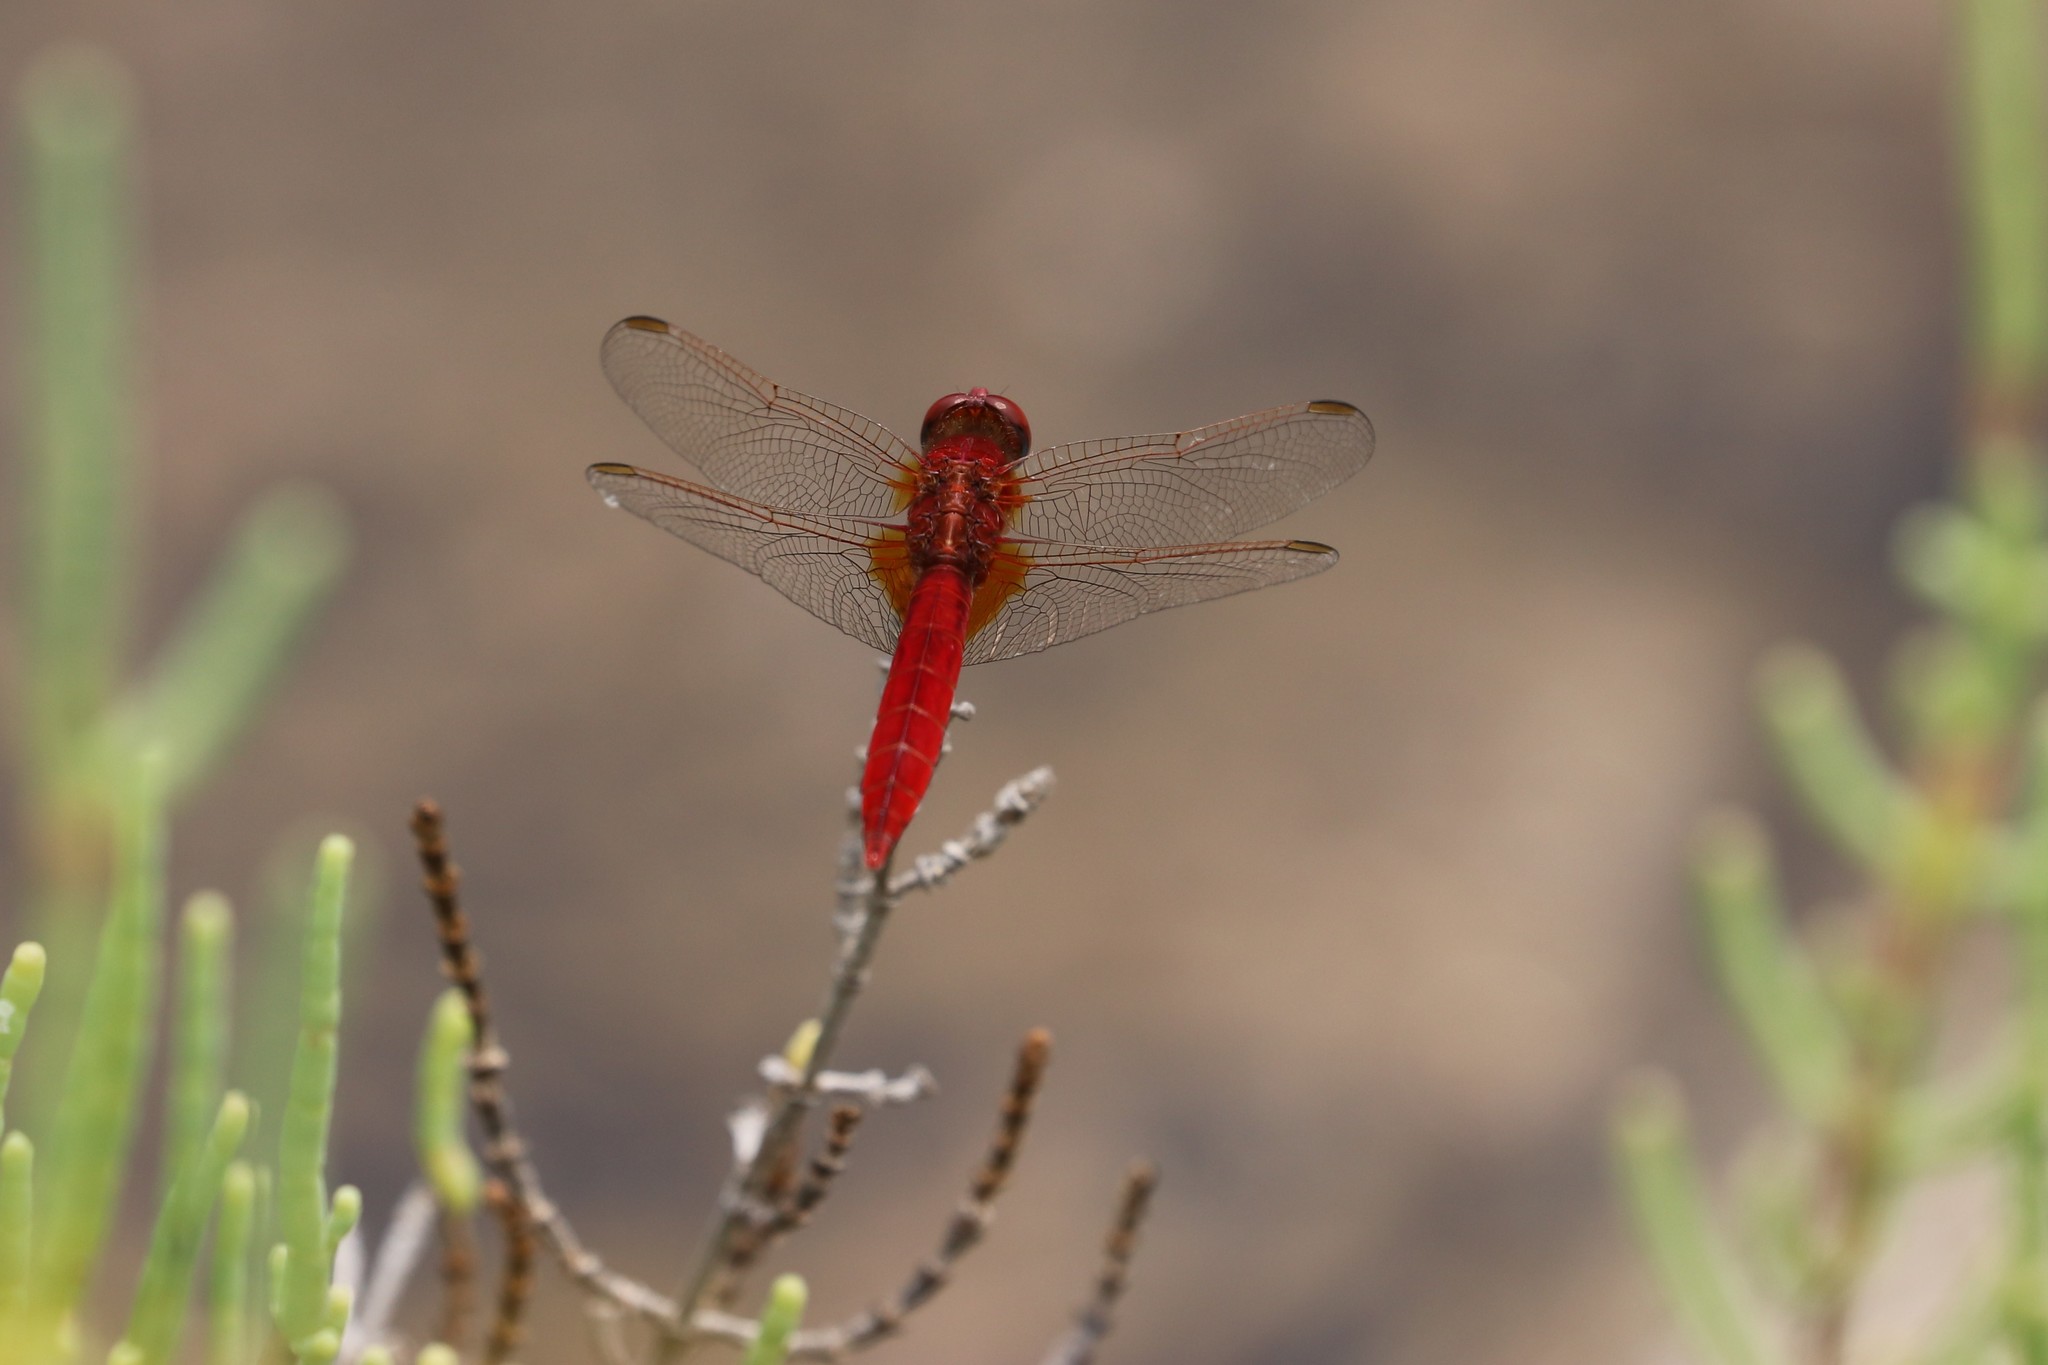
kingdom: Animalia
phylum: Arthropoda
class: Insecta
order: Odonata
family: Libellulidae
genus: Crocothemis
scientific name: Crocothemis erythraea
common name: Scarlet dragonfly
